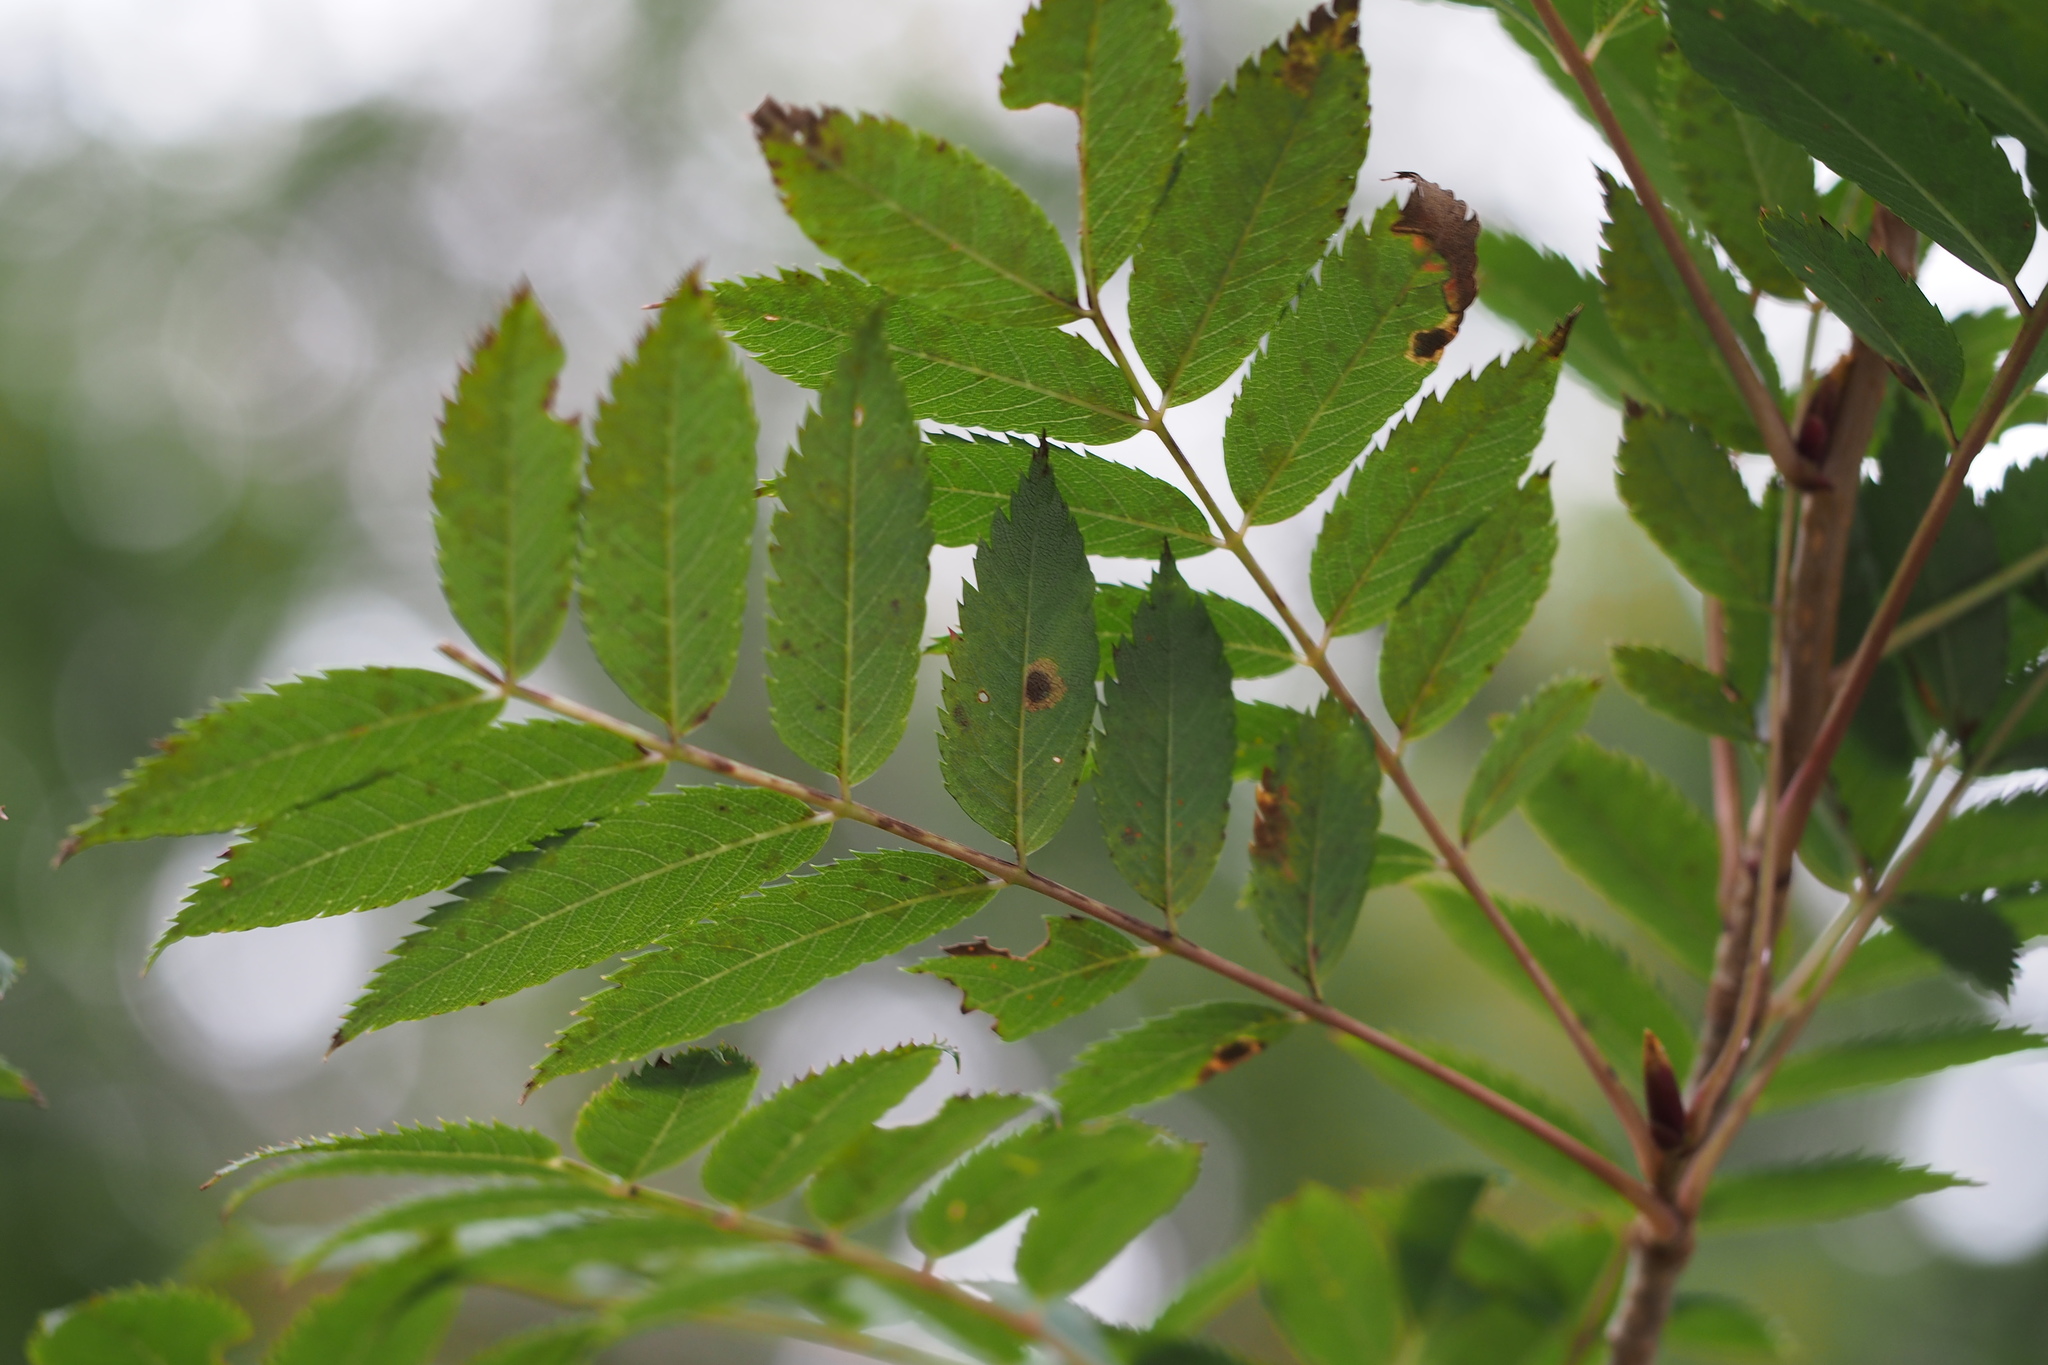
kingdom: Plantae
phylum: Tracheophyta
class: Magnoliopsida
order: Rosales
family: Rosaceae
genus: Sorbus
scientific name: Sorbus commixta
